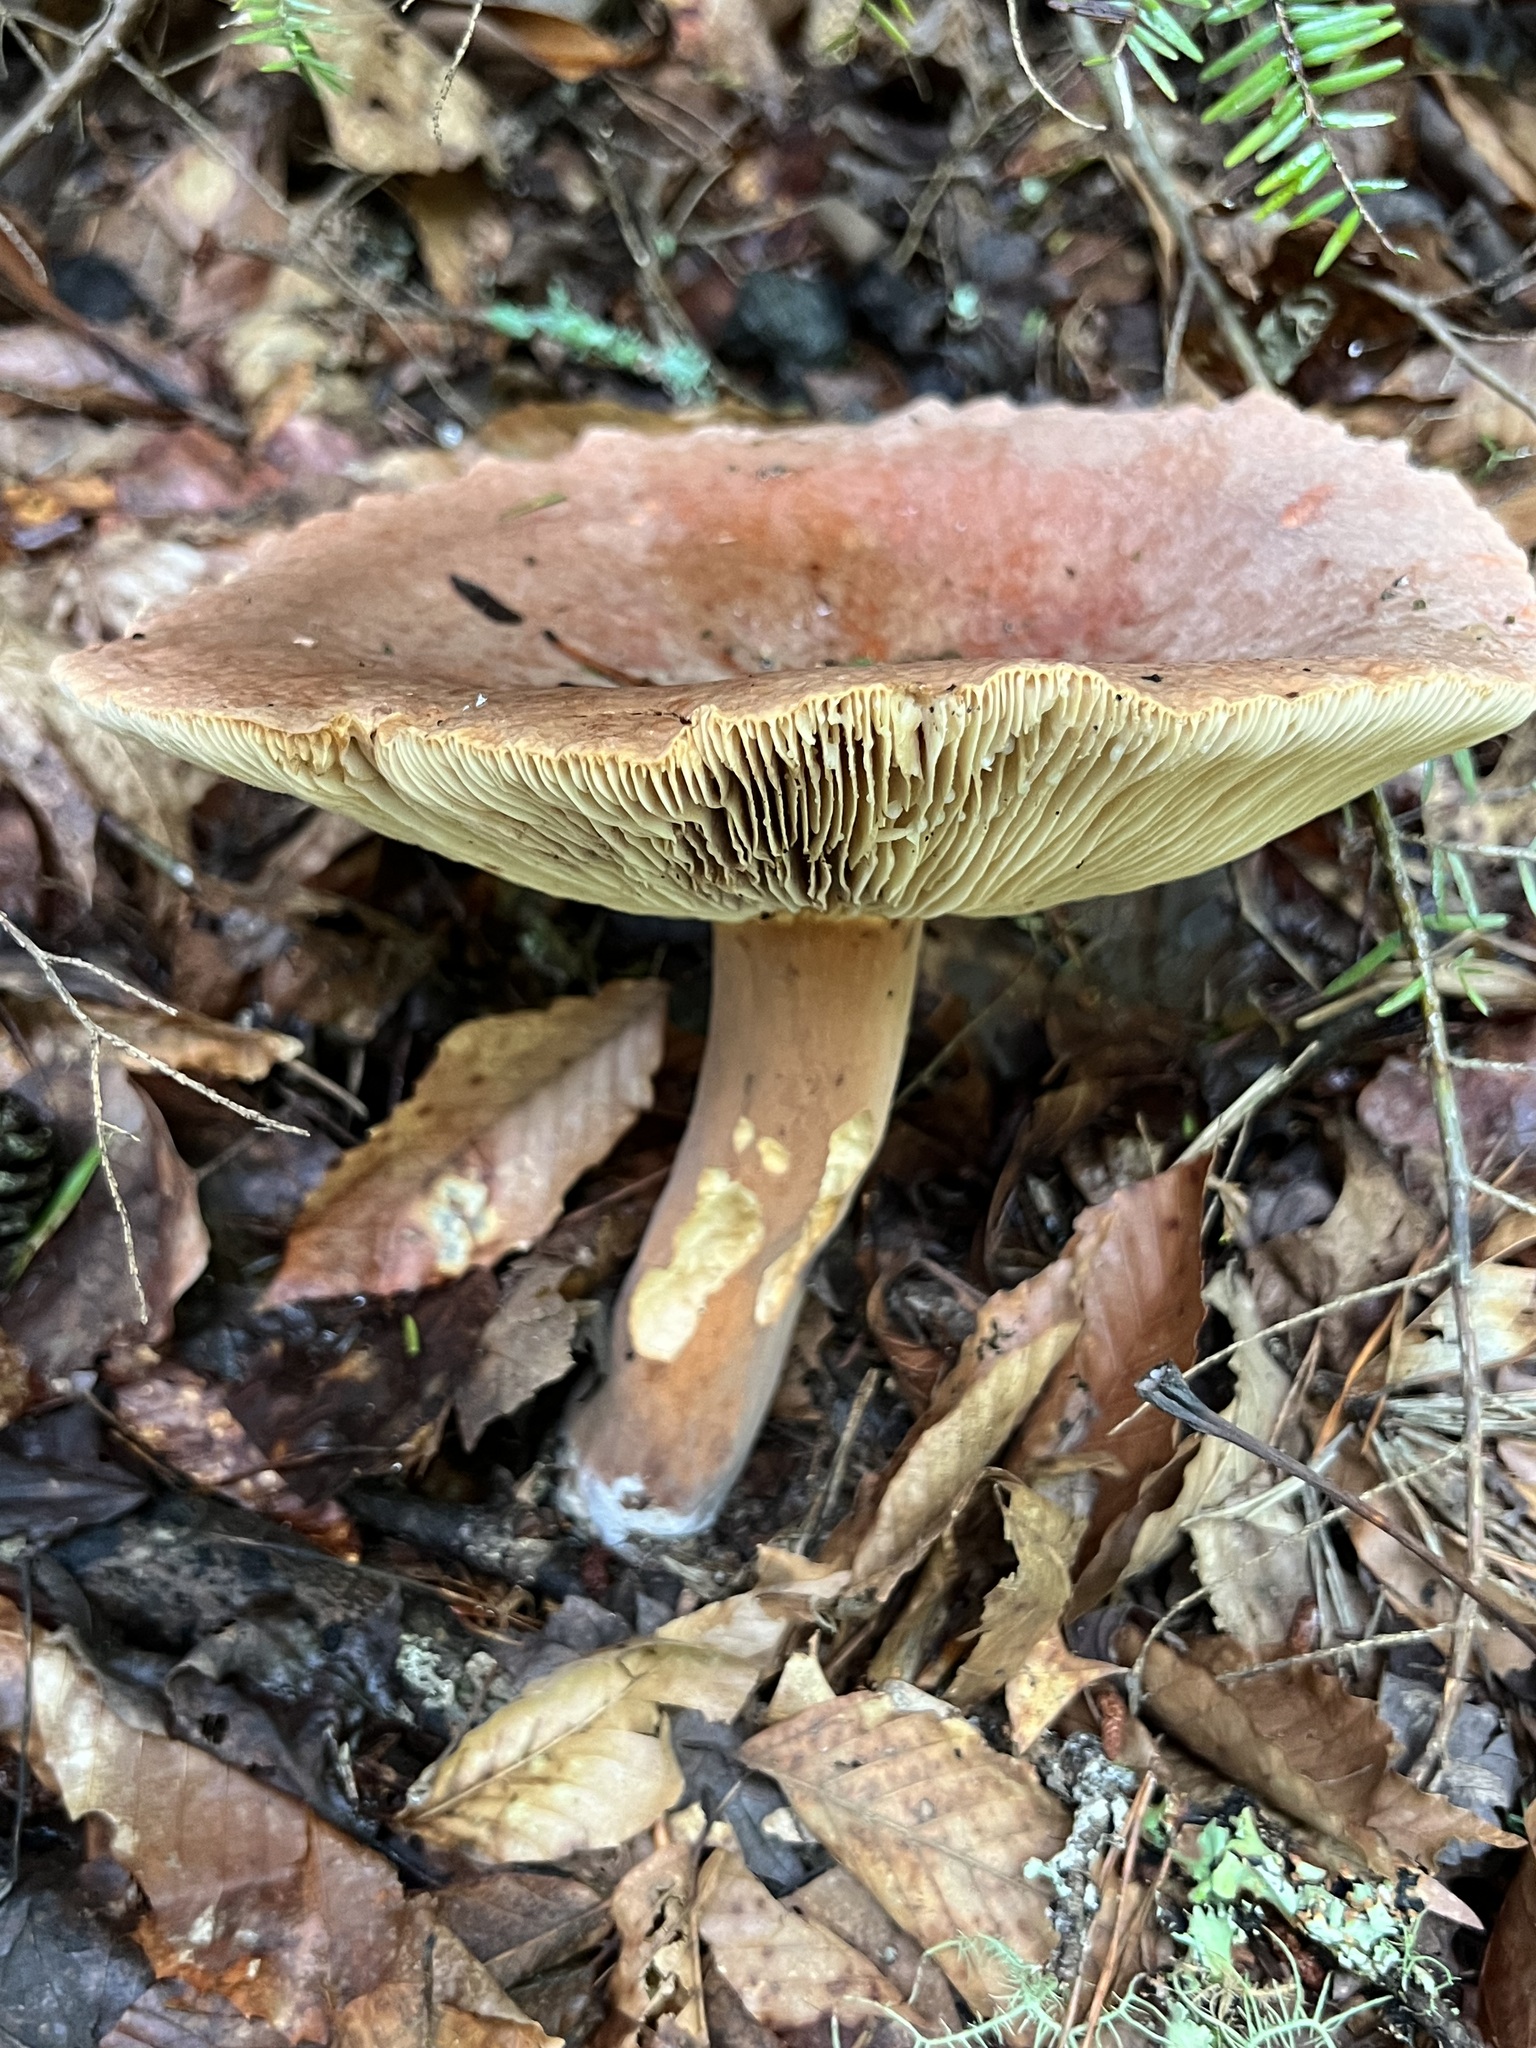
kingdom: Fungi
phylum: Basidiomycota
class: Agaricomycetes
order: Russulales
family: Russulaceae
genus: Lactarius
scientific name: Lactarius corrugis
